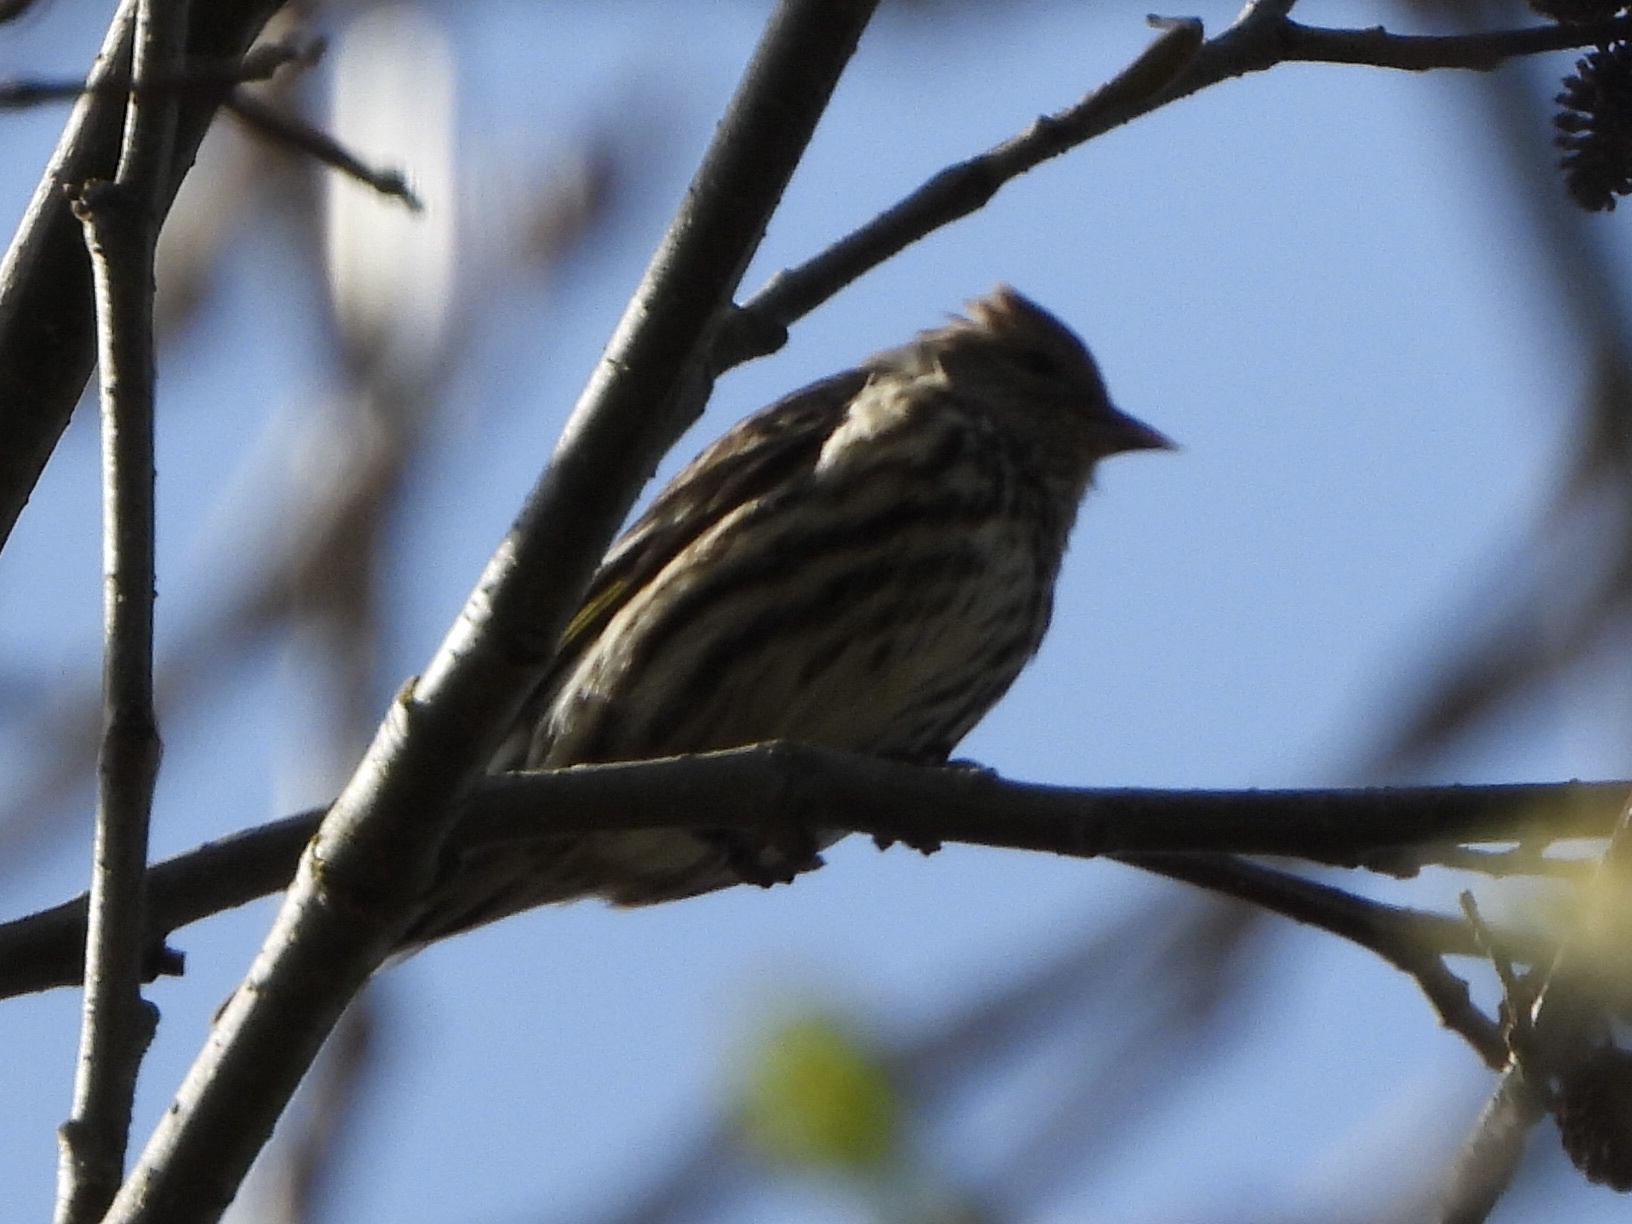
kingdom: Animalia
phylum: Chordata
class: Aves
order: Passeriformes
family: Fringillidae
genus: Spinus
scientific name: Spinus pinus
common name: Pine siskin
